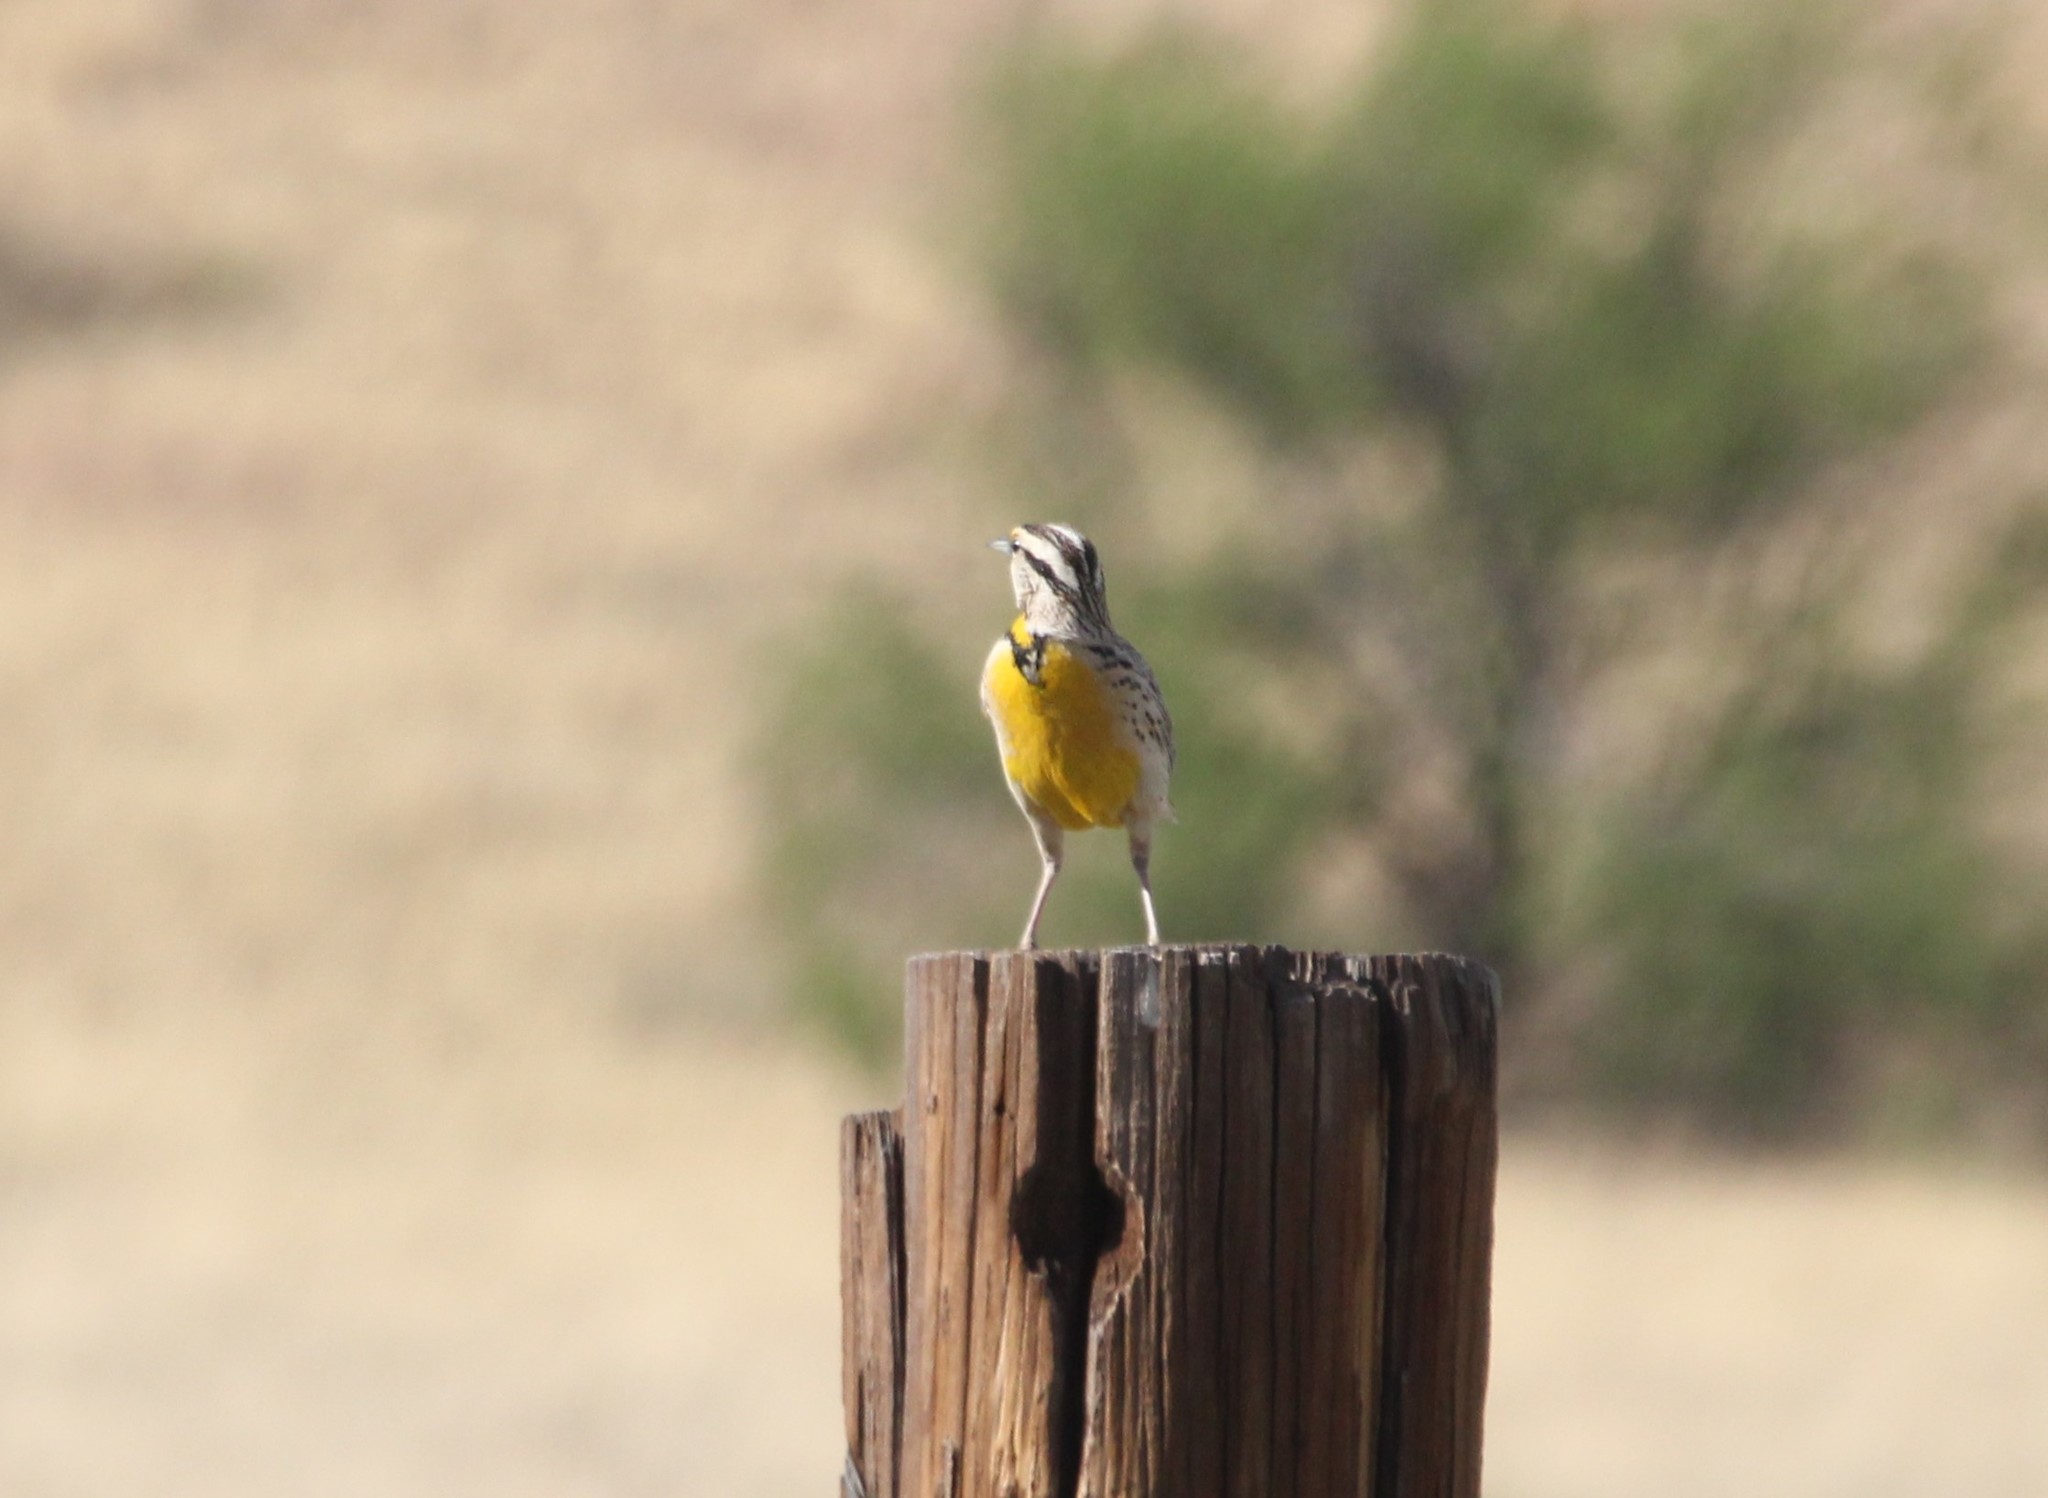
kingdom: Animalia
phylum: Chordata
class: Aves
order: Passeriformes
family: Icteridae
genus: Sturnella
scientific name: Sturnella lilianae
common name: Lilian's meadowlark
